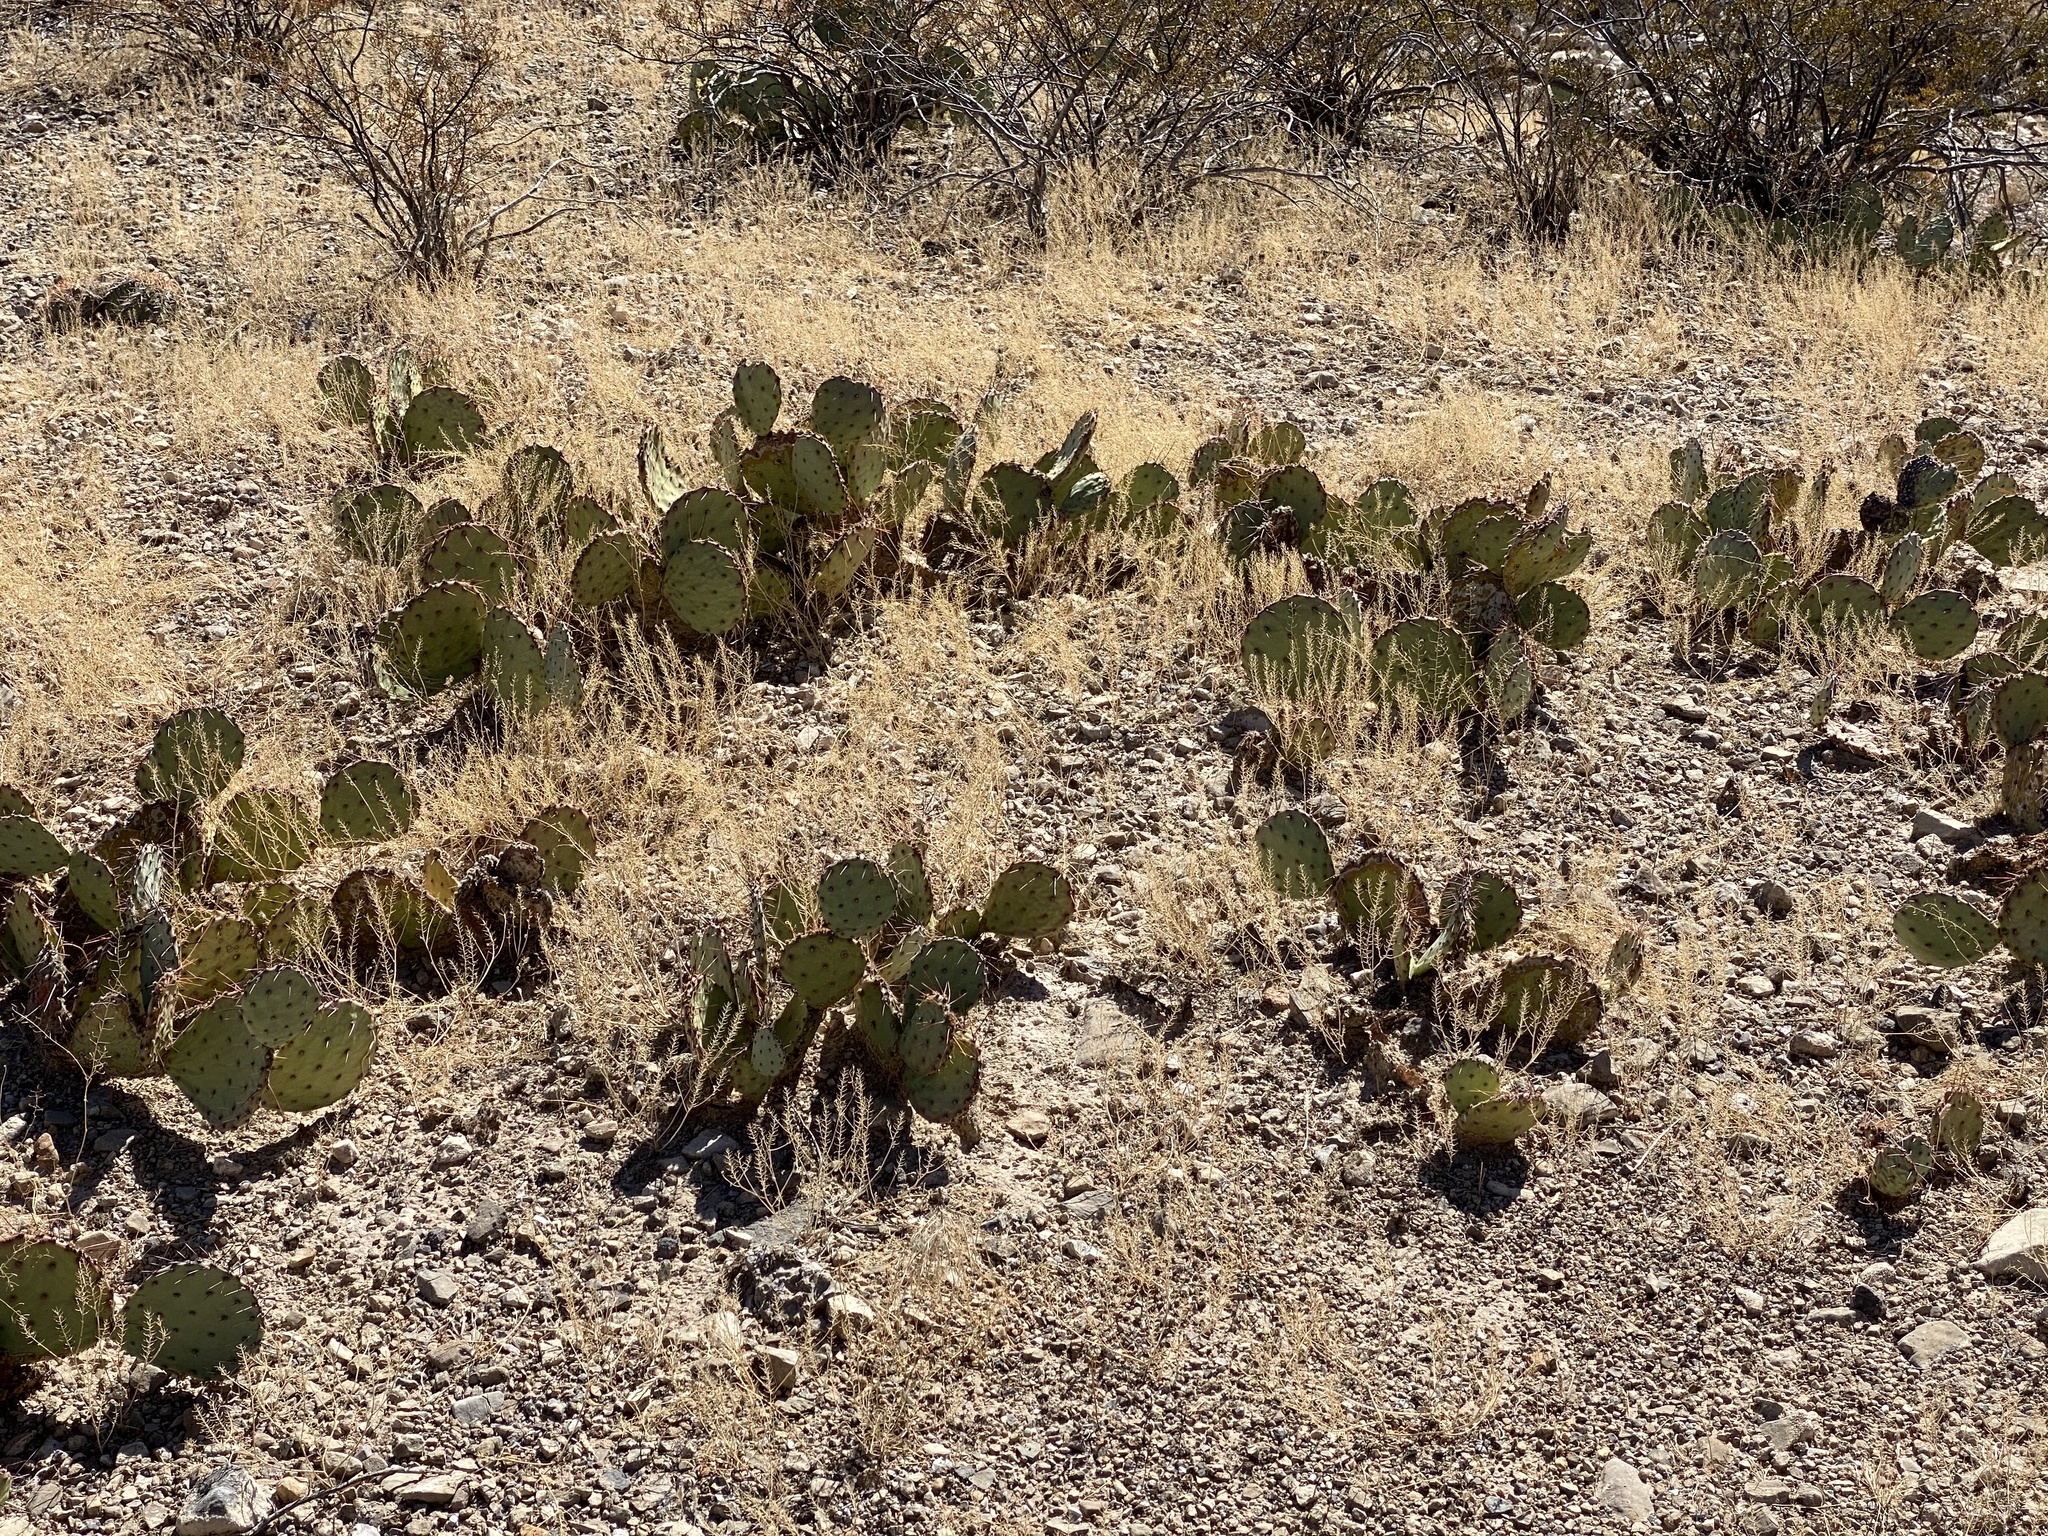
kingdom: Plantae
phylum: Tracheophyta
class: Magnoliopsida
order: Caryophyllales
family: Cactaceae
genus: Opuntia
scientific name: Opuntia phaeacantha
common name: New mexico prickly-pear
